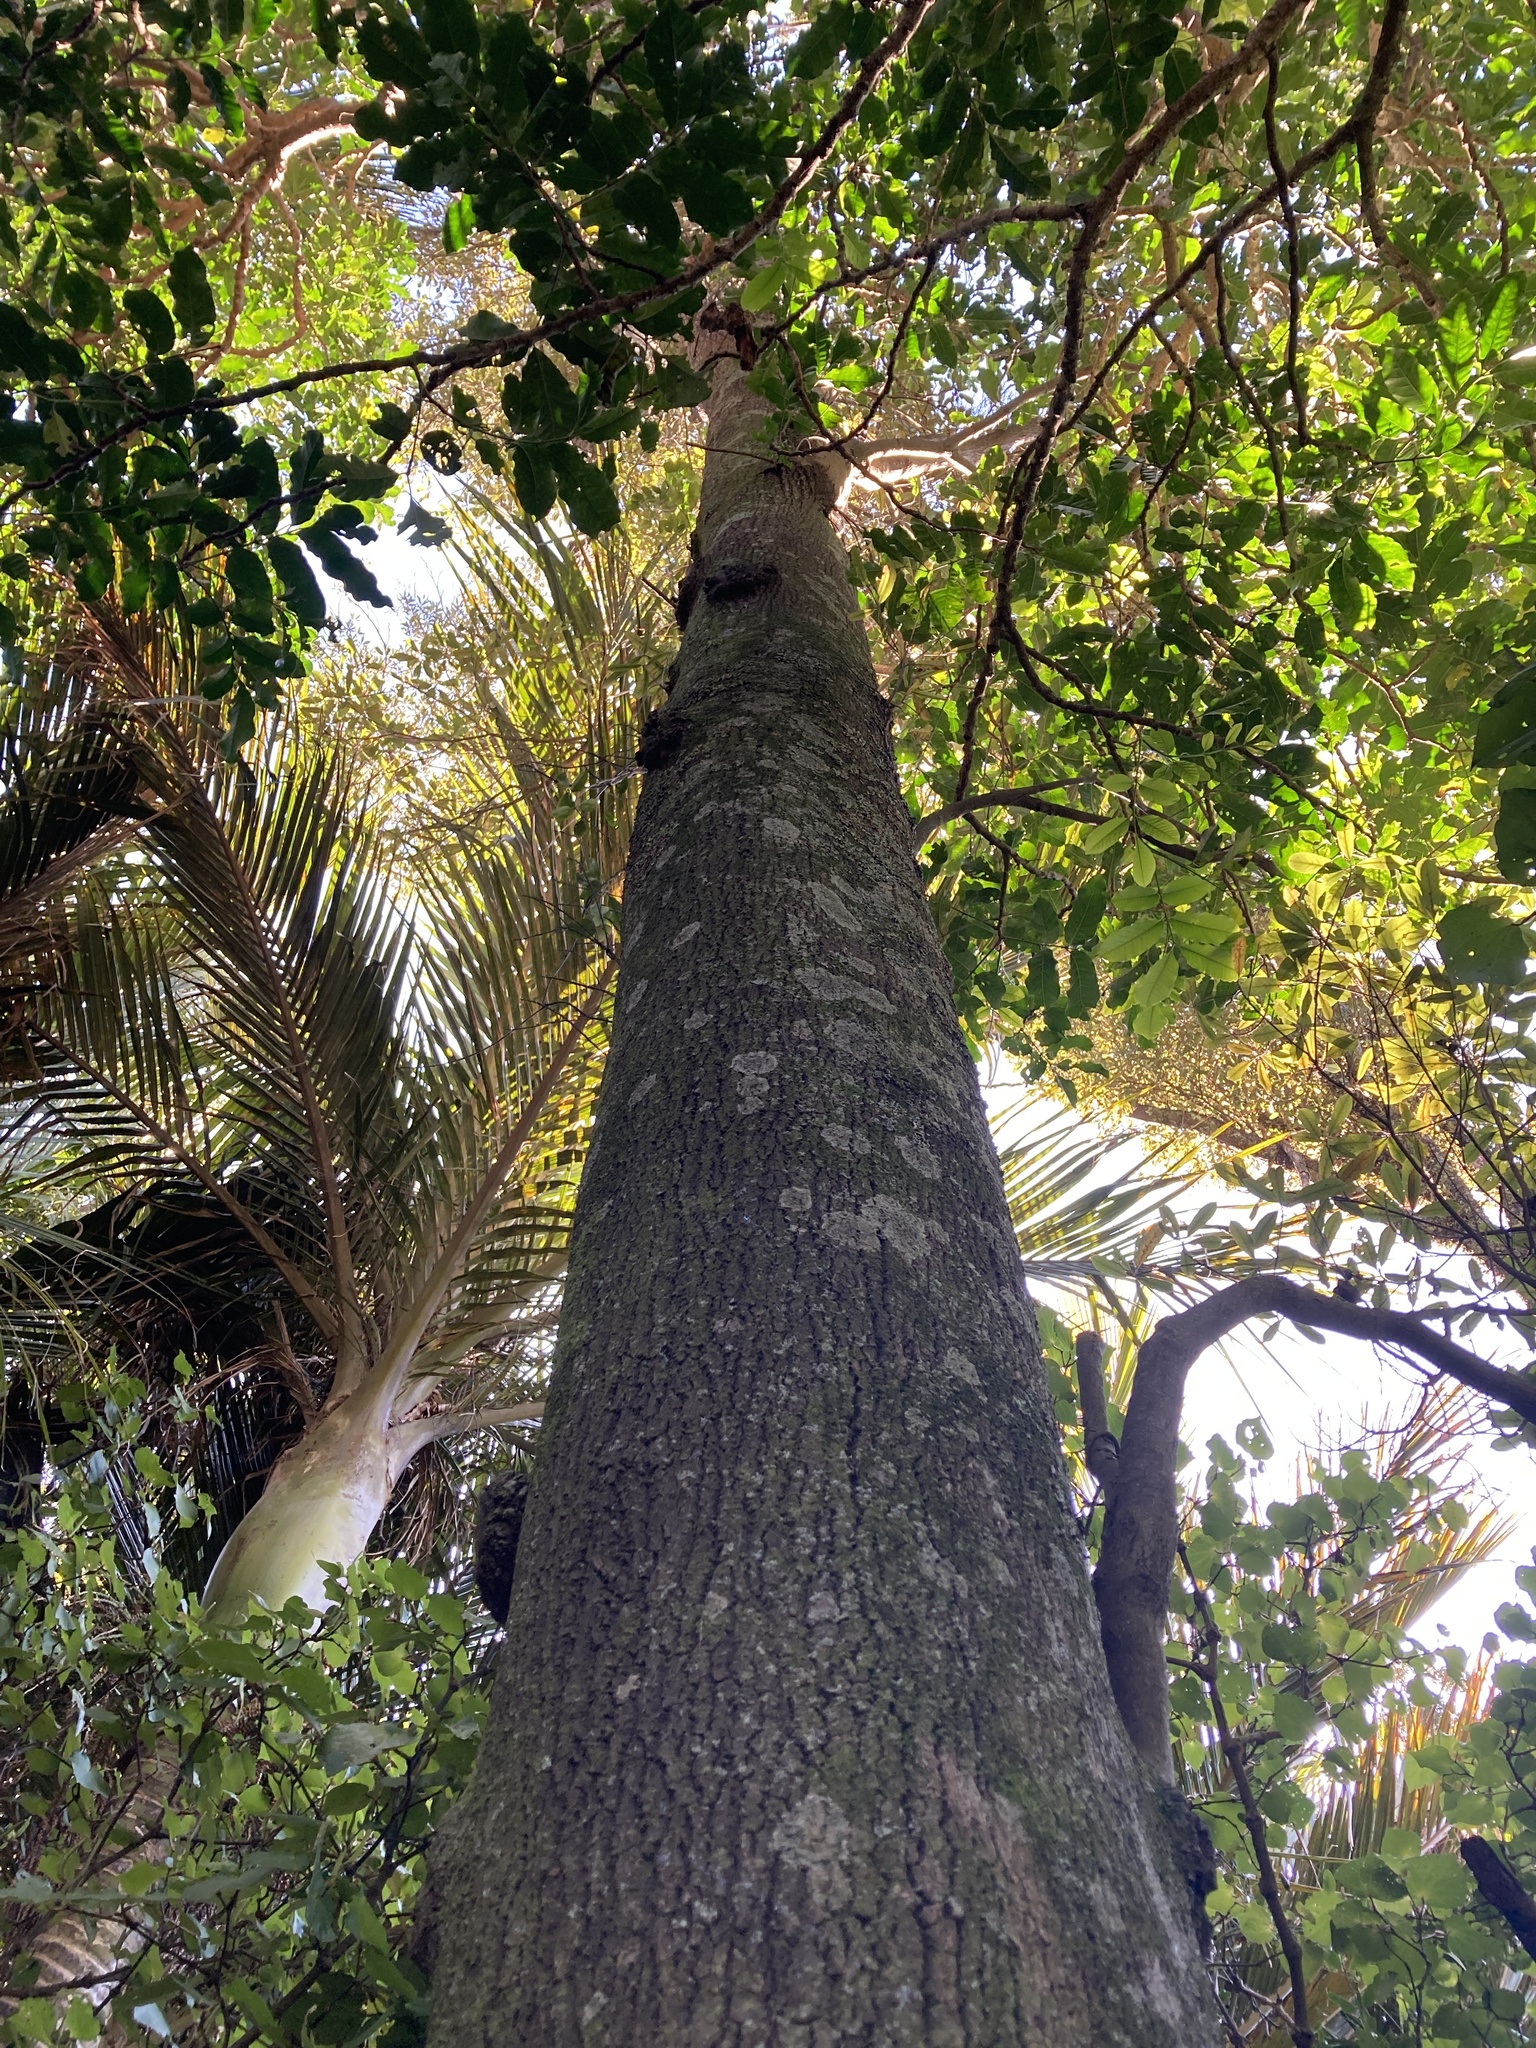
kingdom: Plantae
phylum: Tracheophyta
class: Magnoliopsida
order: Oxalidales
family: Elaeocarpaceae
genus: Elaeocarpus
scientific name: Elaeocarpus dentatus
